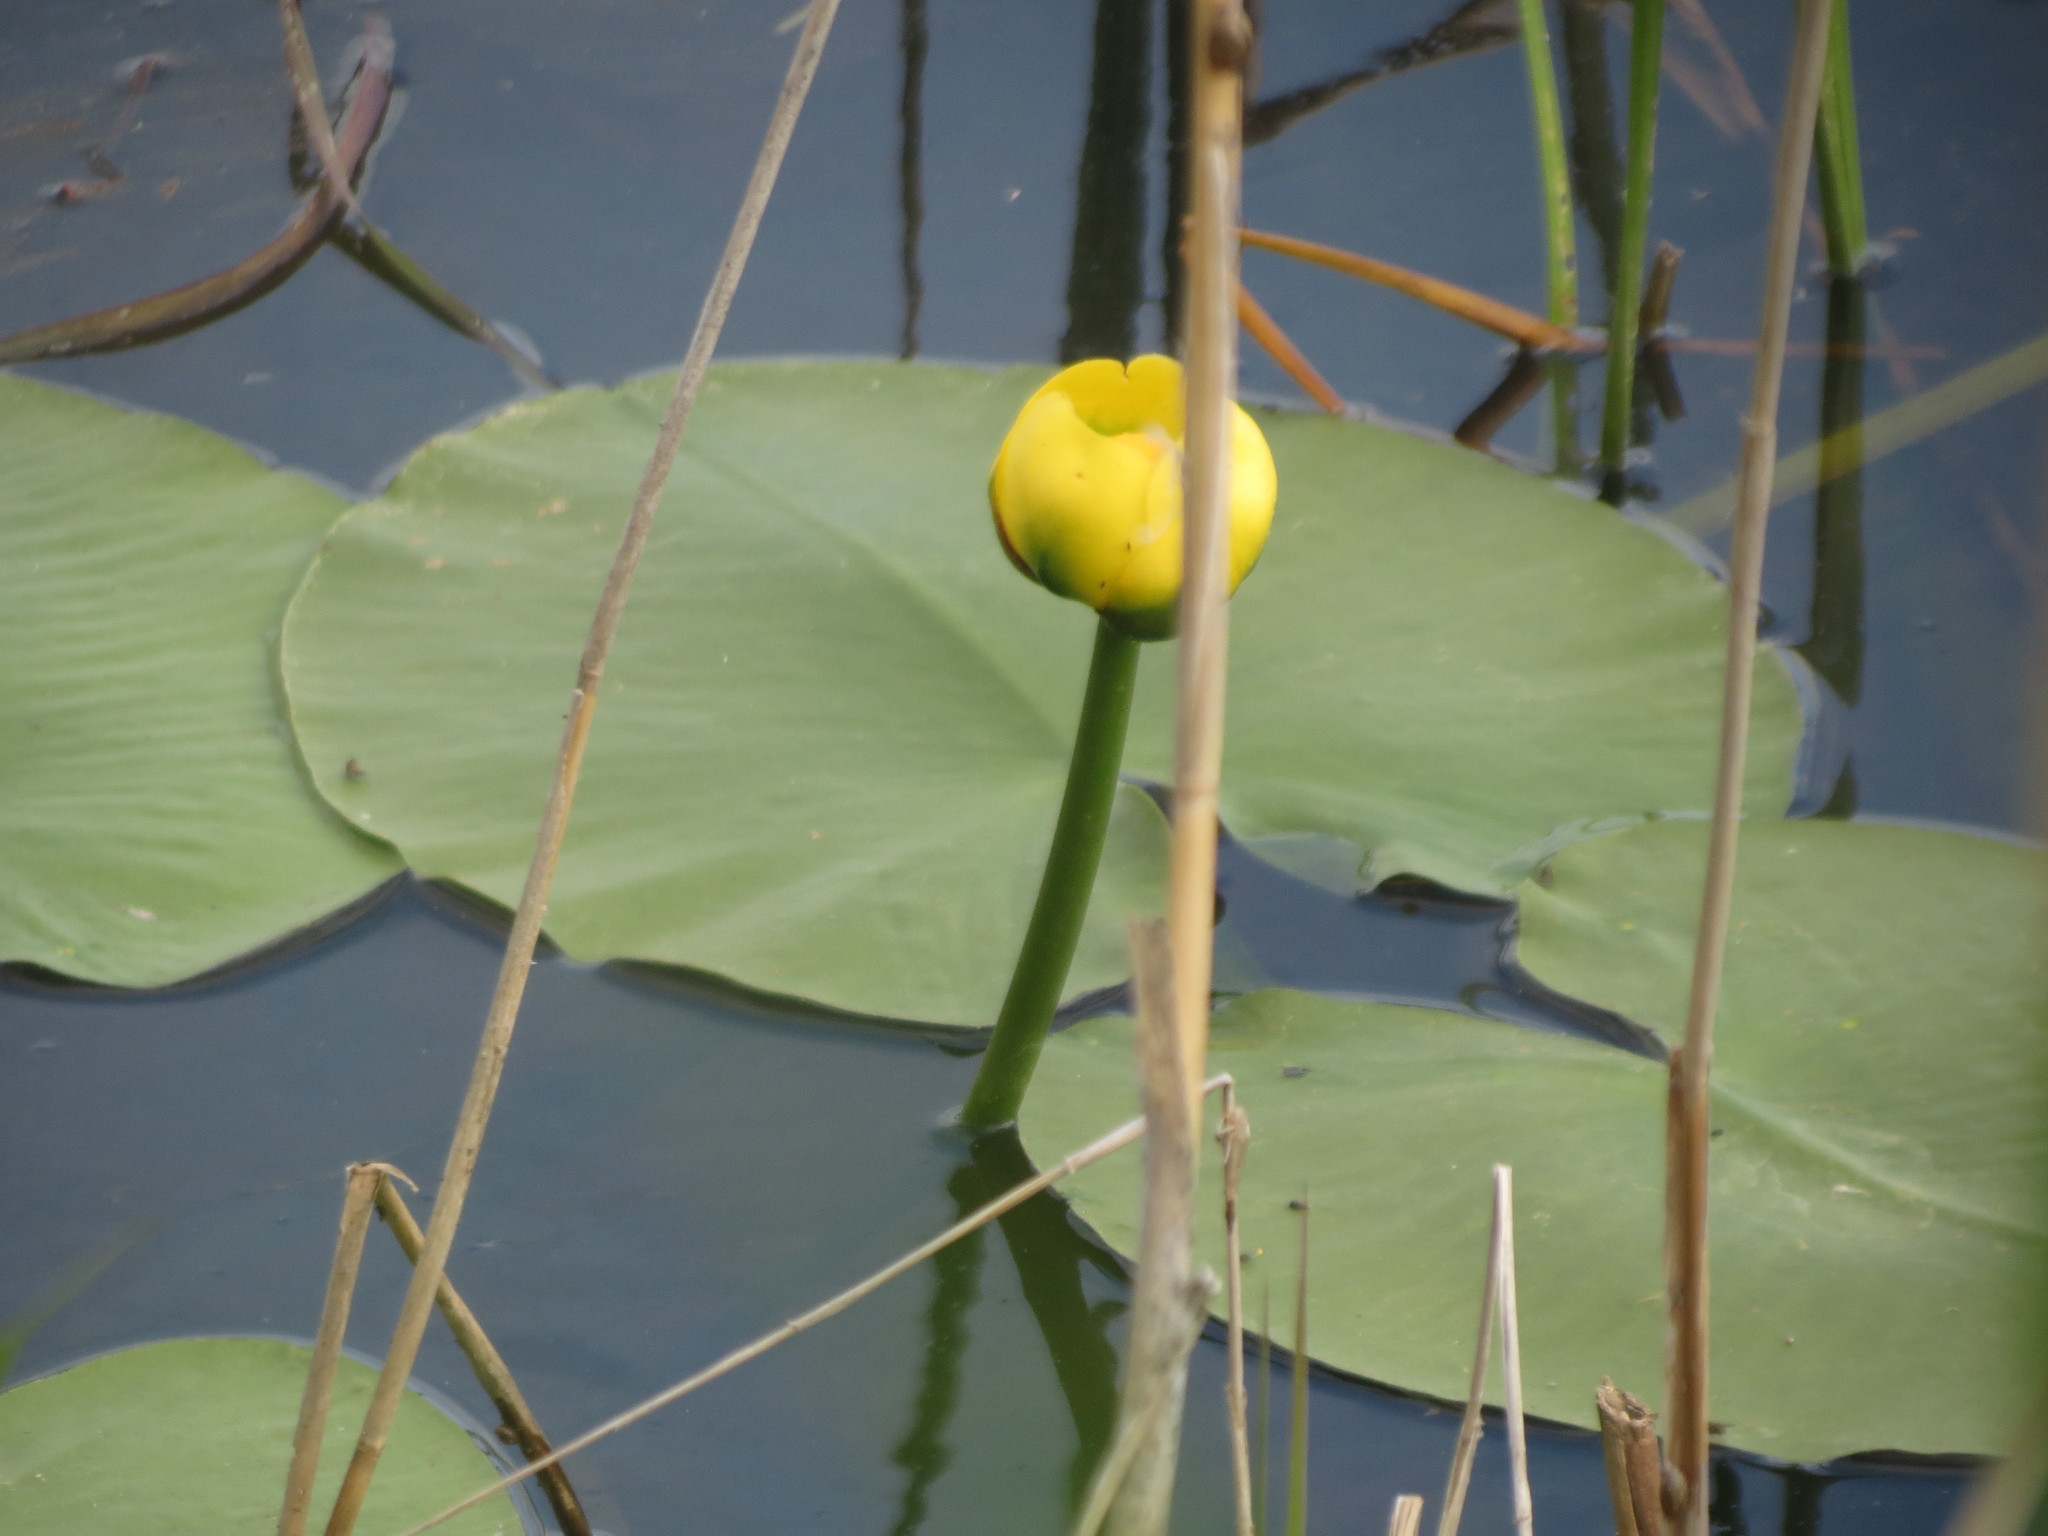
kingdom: Plantae
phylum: Tracheophyta
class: Magnoliopsida
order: Nymphaeales
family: Nymphaeaceae
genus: Nuphar
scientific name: Nuphar variegata
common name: Beaver-root
